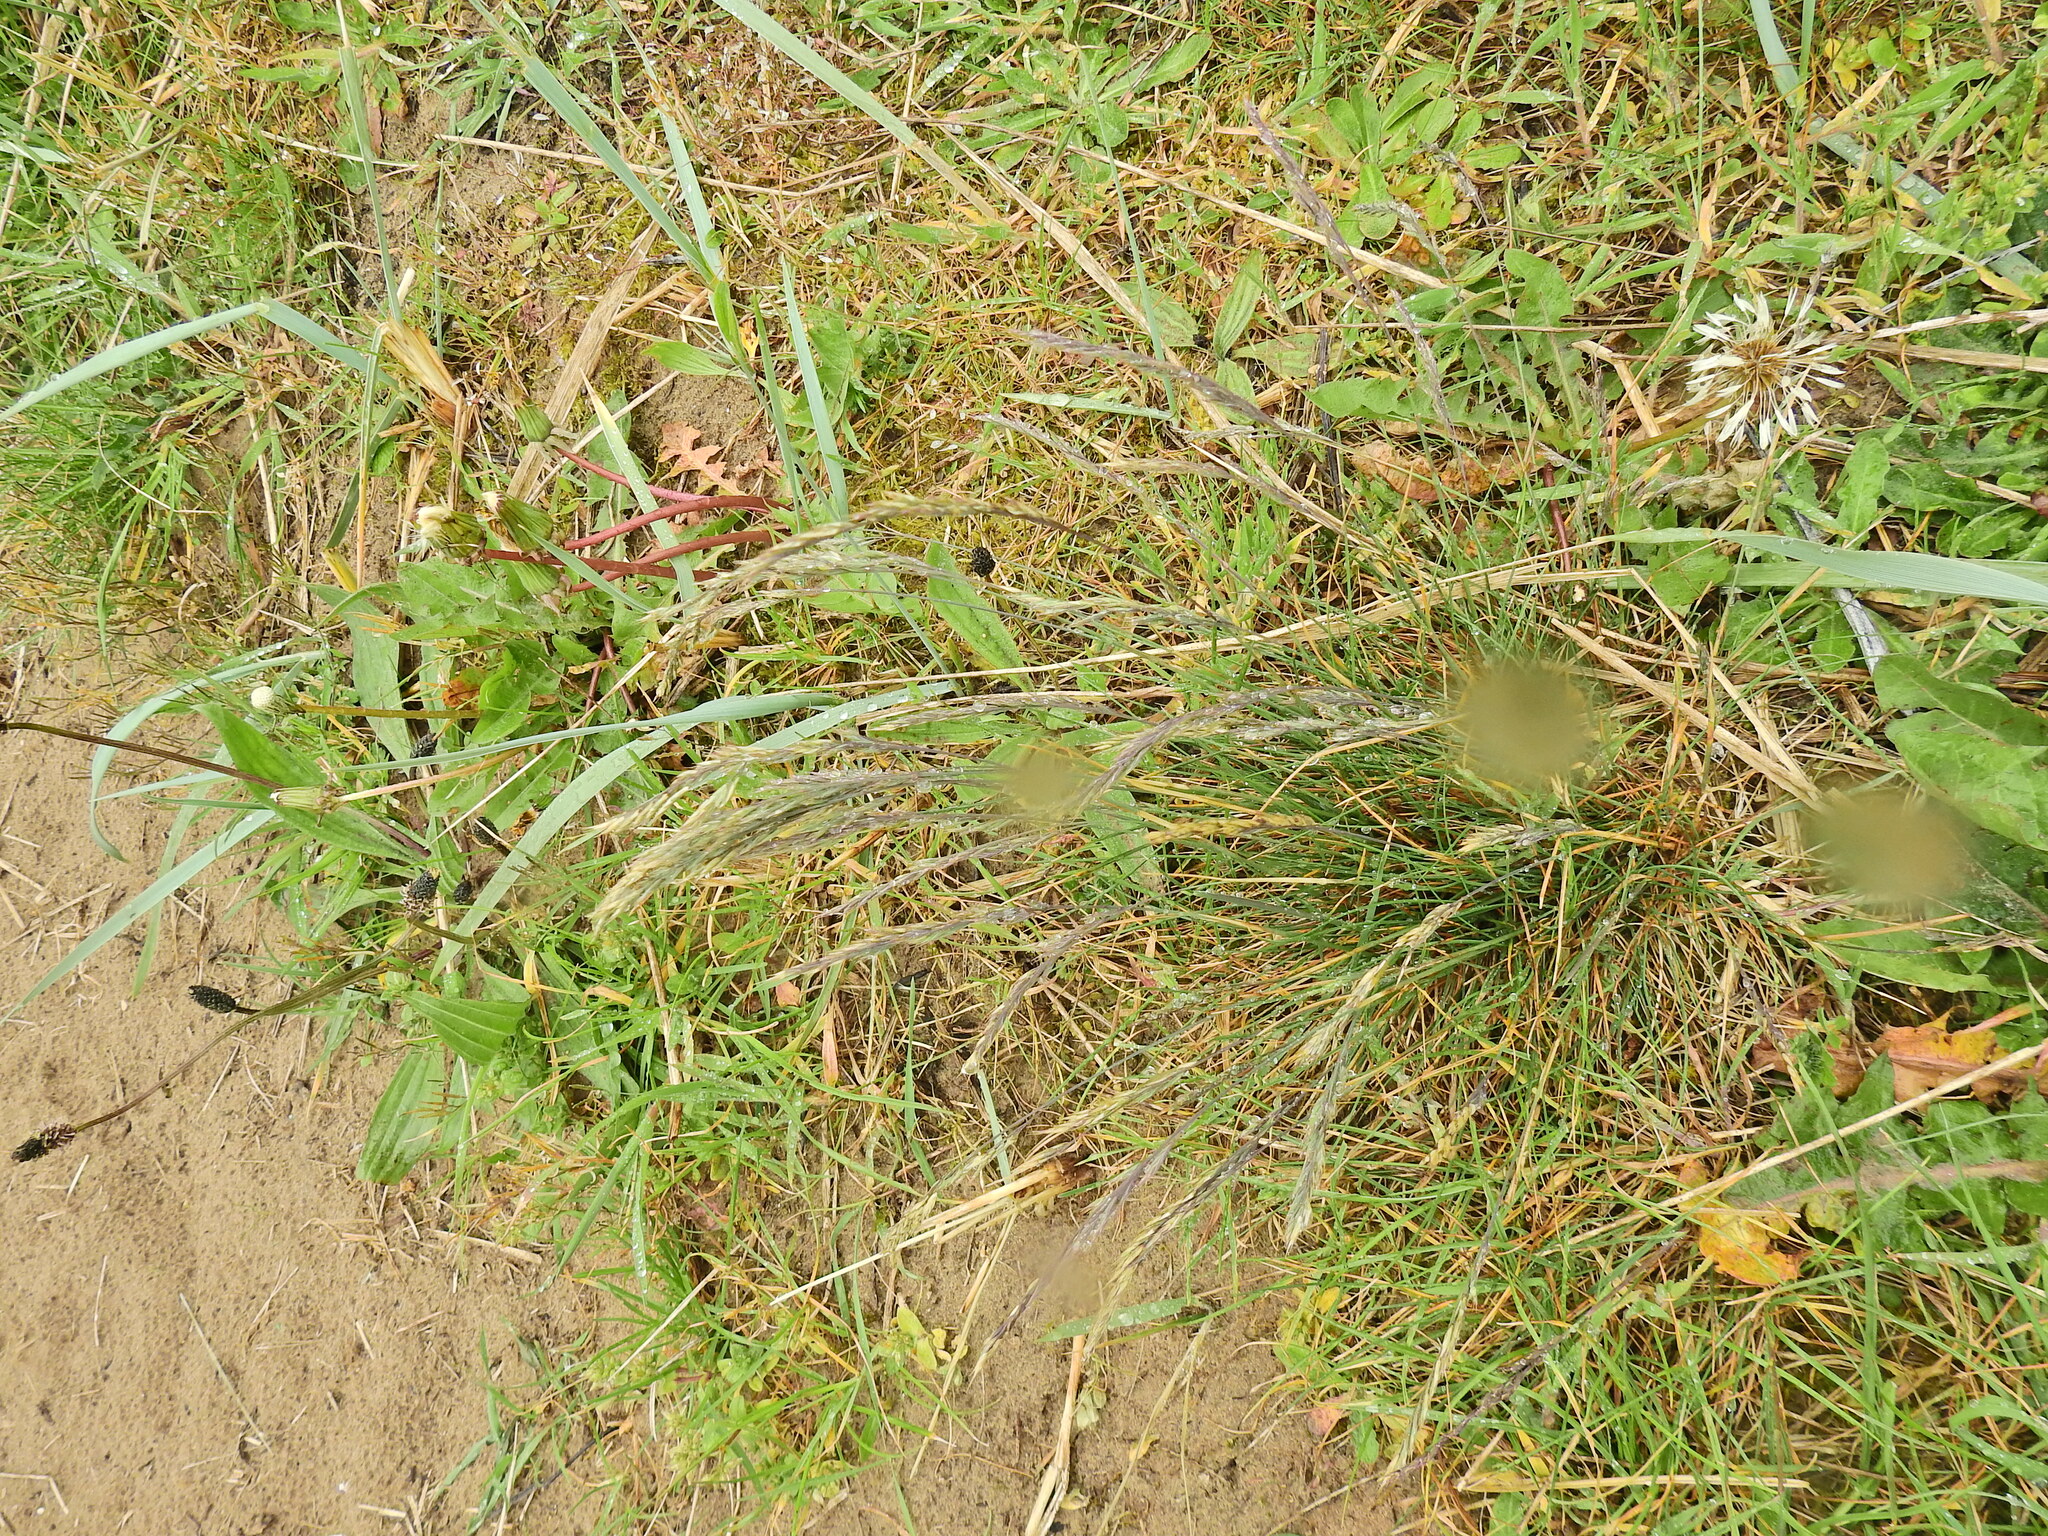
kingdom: Plantae
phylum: Tracheophyta
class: Liliopsida
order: Poales
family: Poaceae
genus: Leymus
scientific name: Leymus arenarius
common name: Lyme-grass
